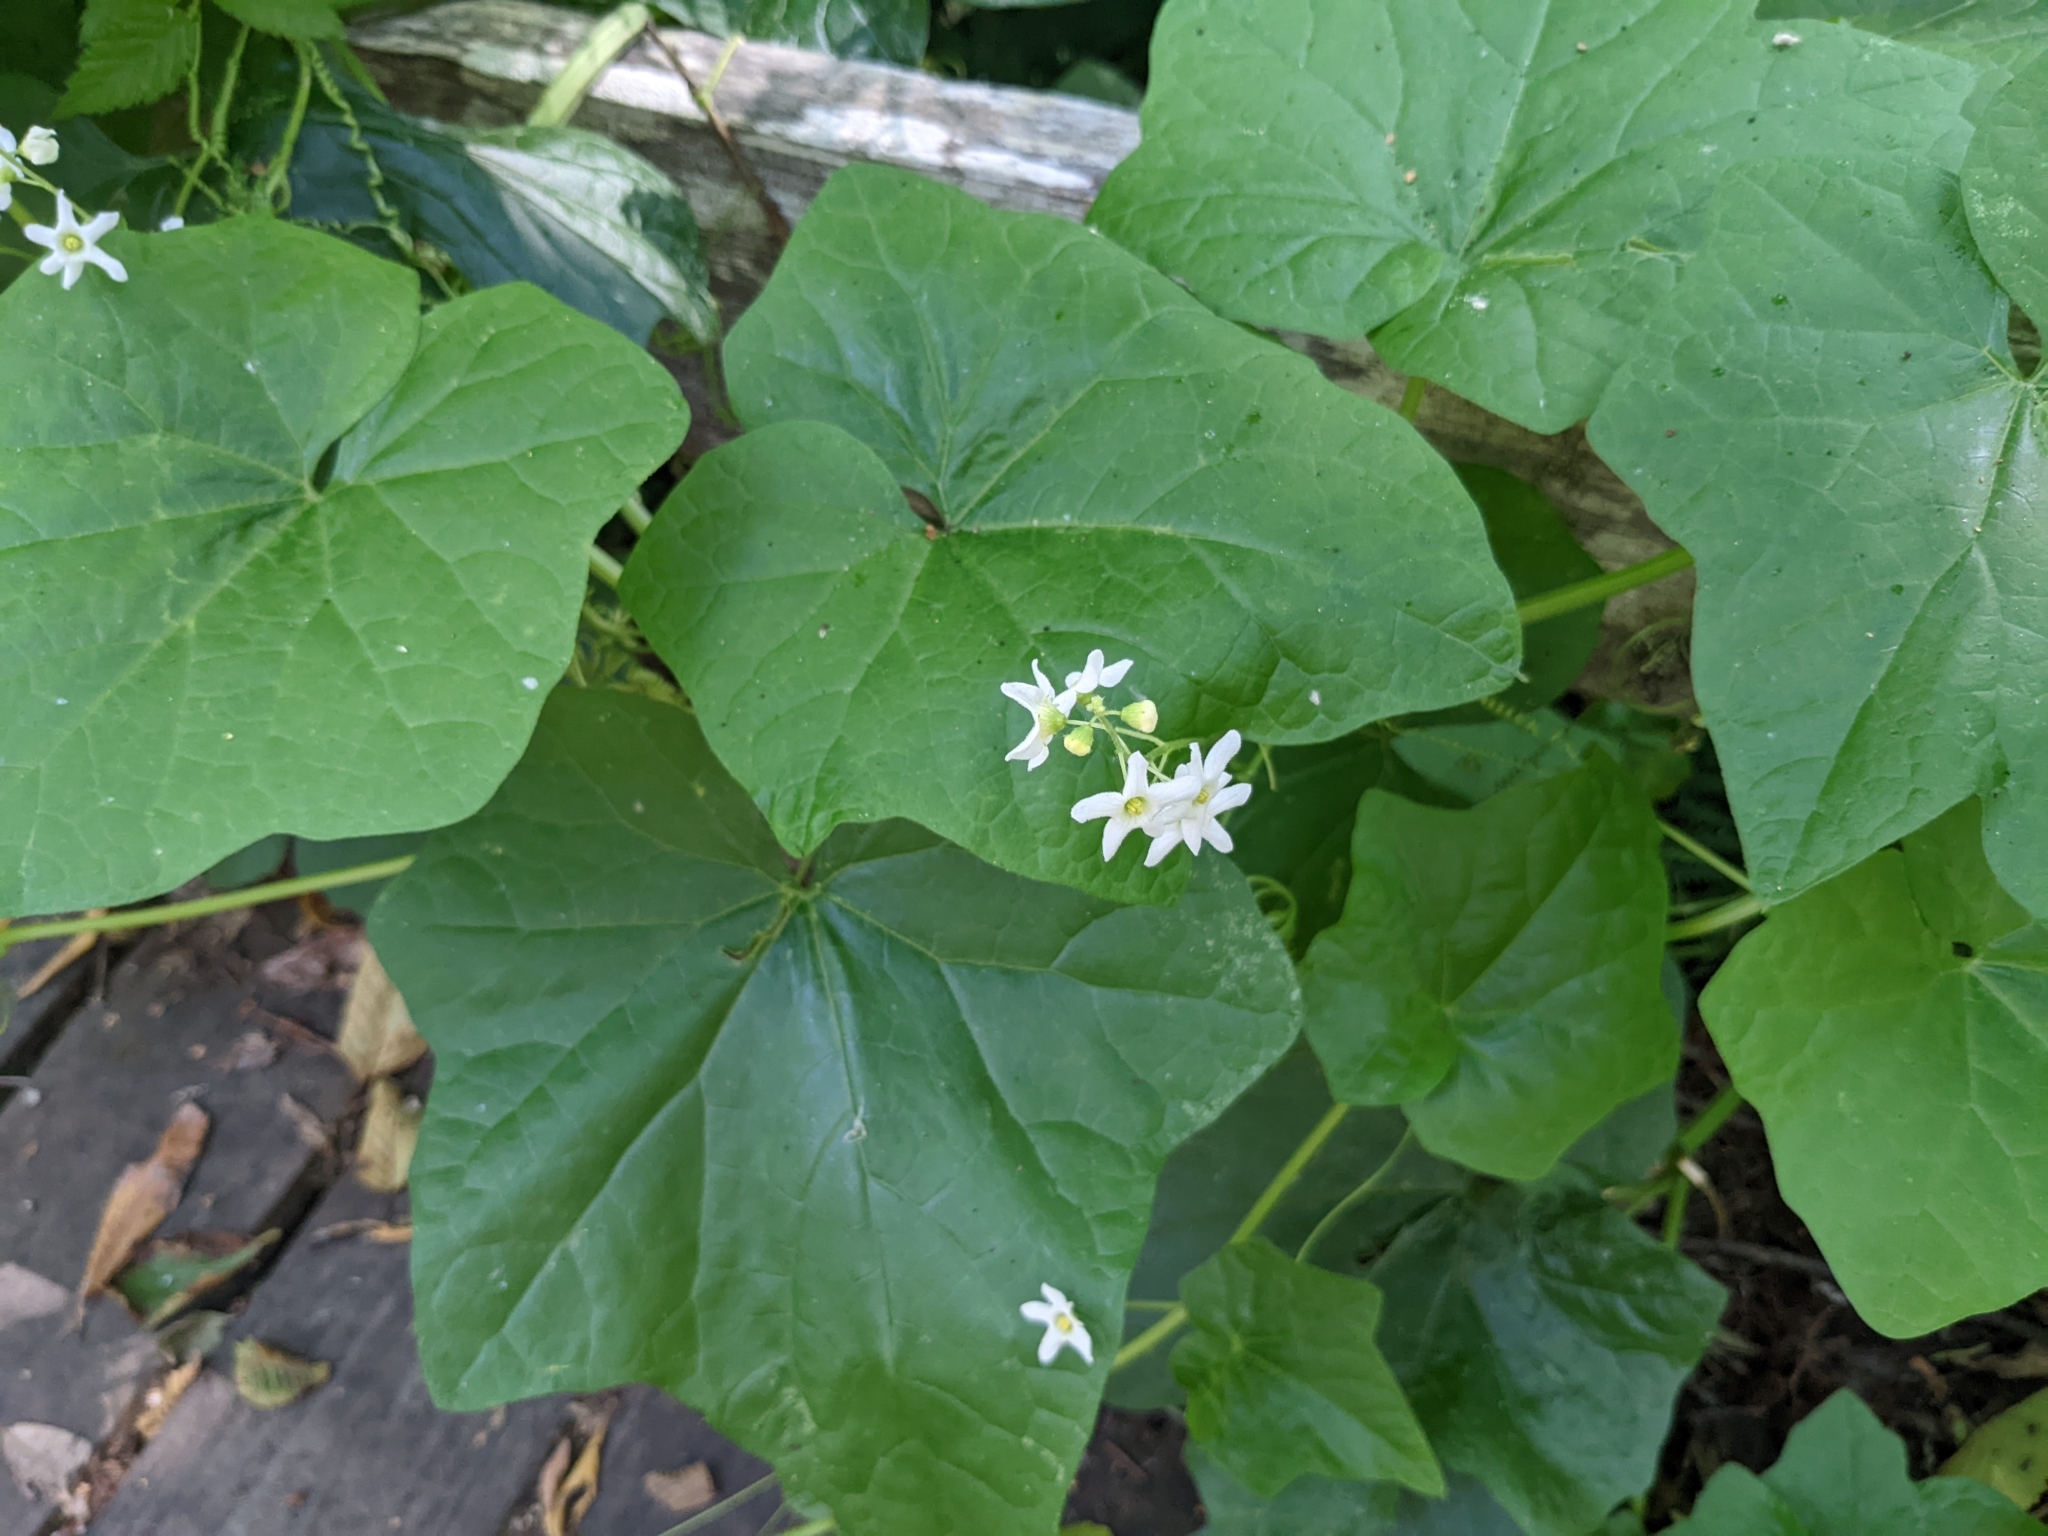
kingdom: Plantae
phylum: Tracheophyta
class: Magnoliopsida
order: Cucurbitales
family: Cucurbitaceae
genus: Marah
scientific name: Marah oregana
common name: Coastal manroot
